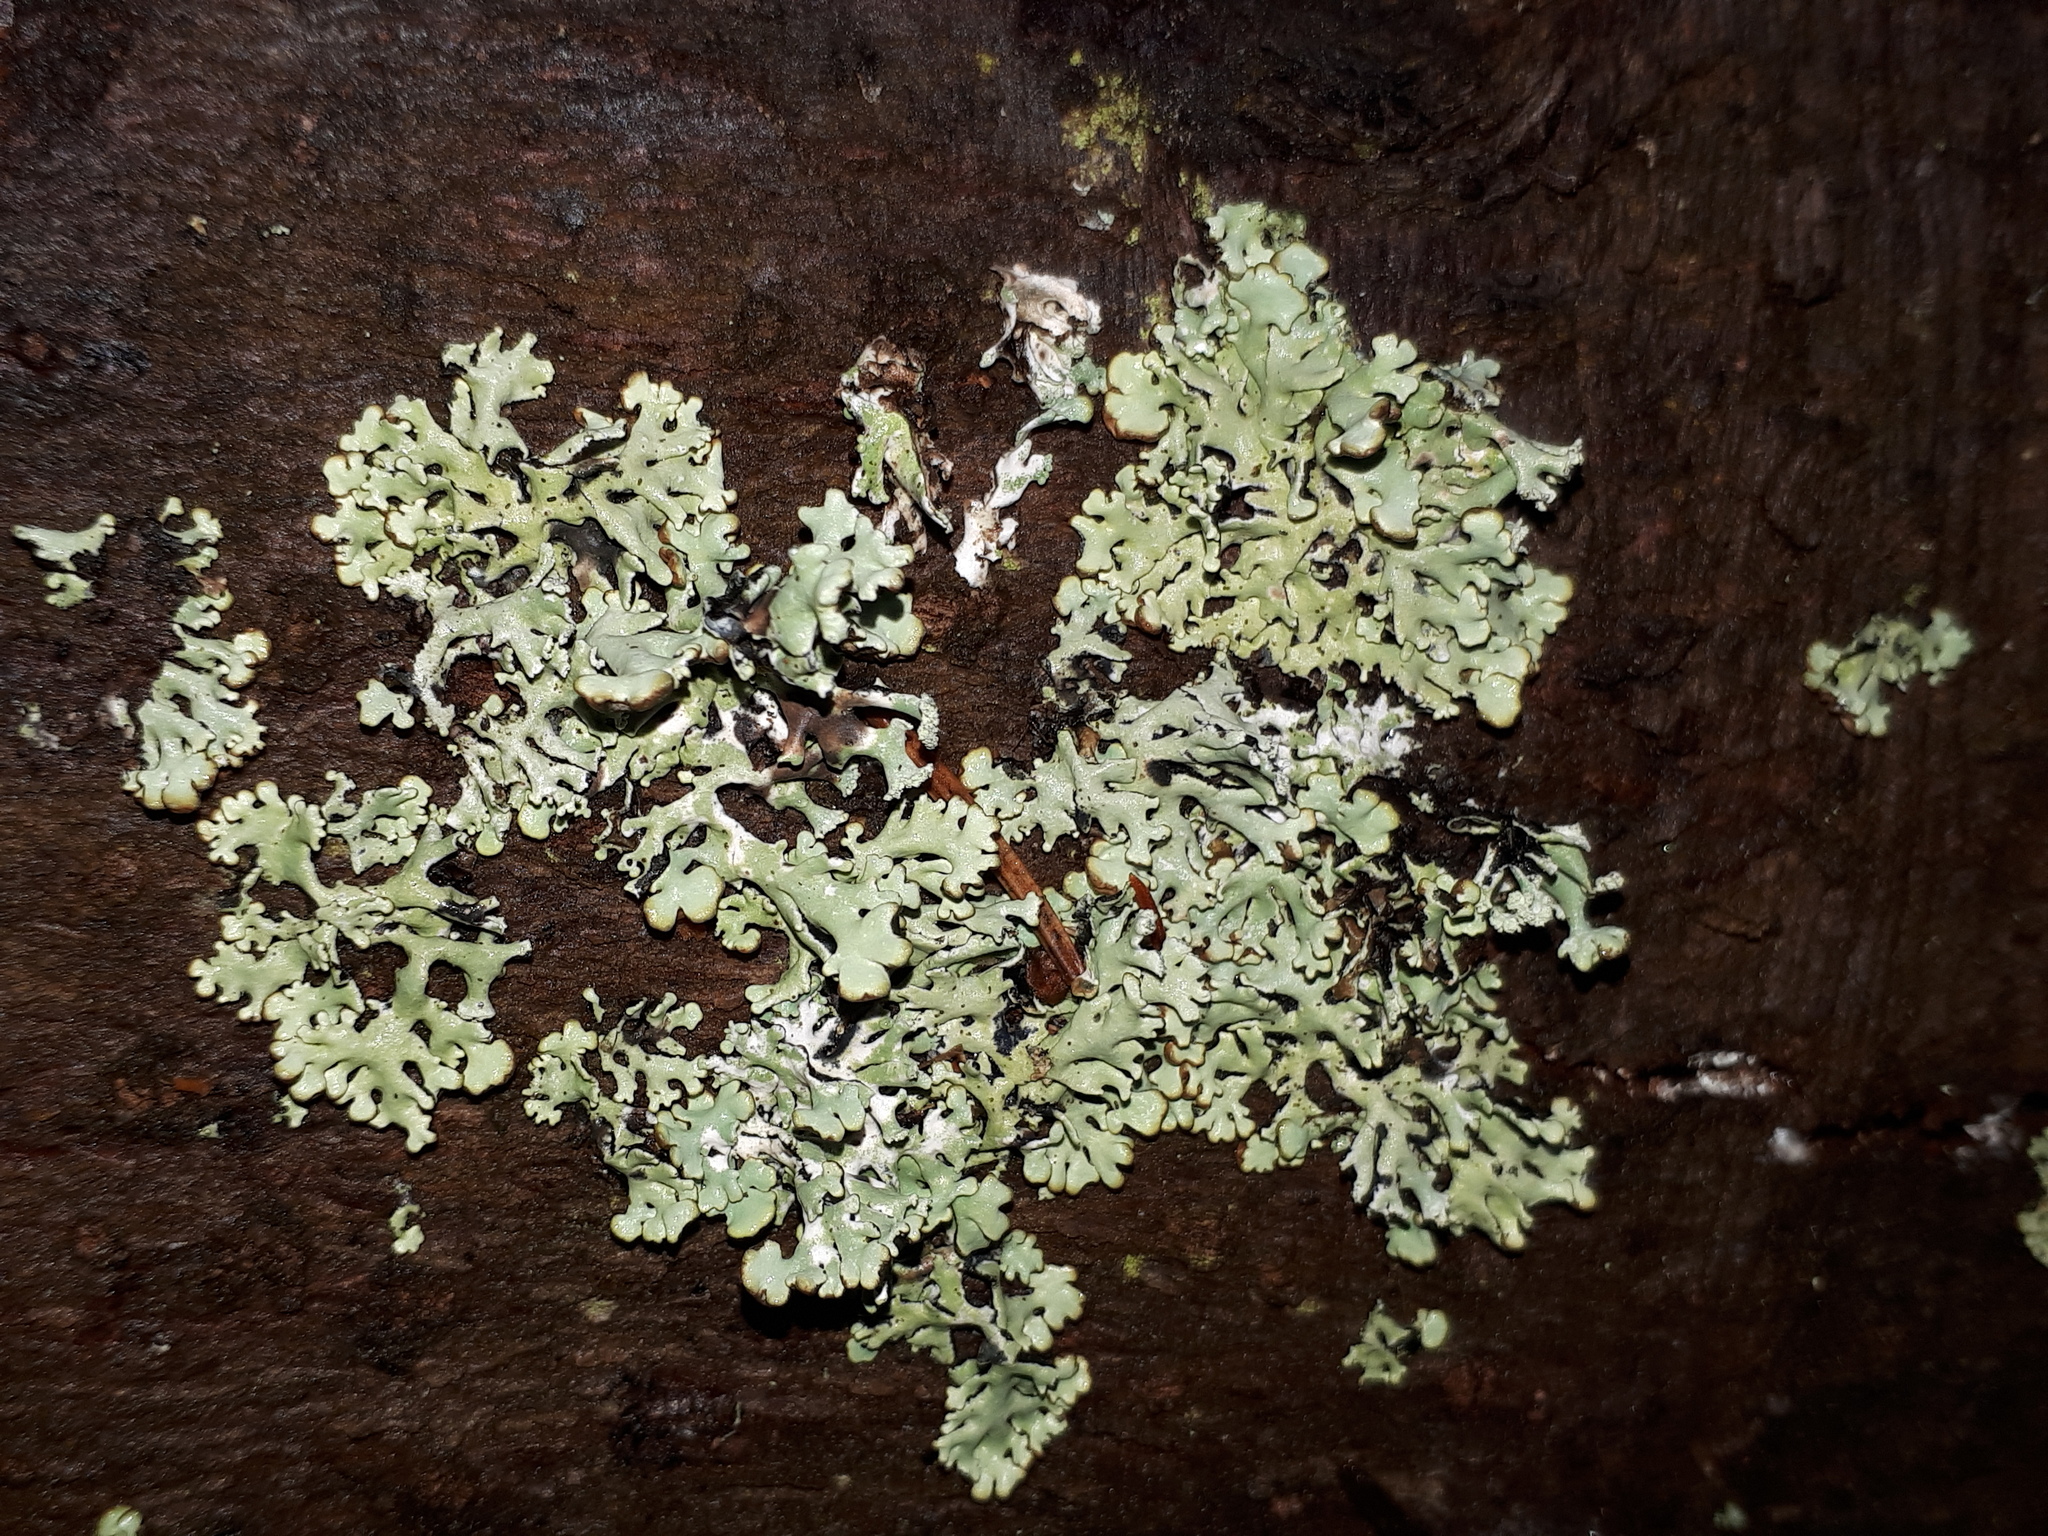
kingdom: Fungi
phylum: Ascomycota
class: Lecanoromycetes
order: Lecanorales
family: Parmeliaceae
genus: Hypogymnia
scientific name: Hypogymnia physodes
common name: Dark crottle
